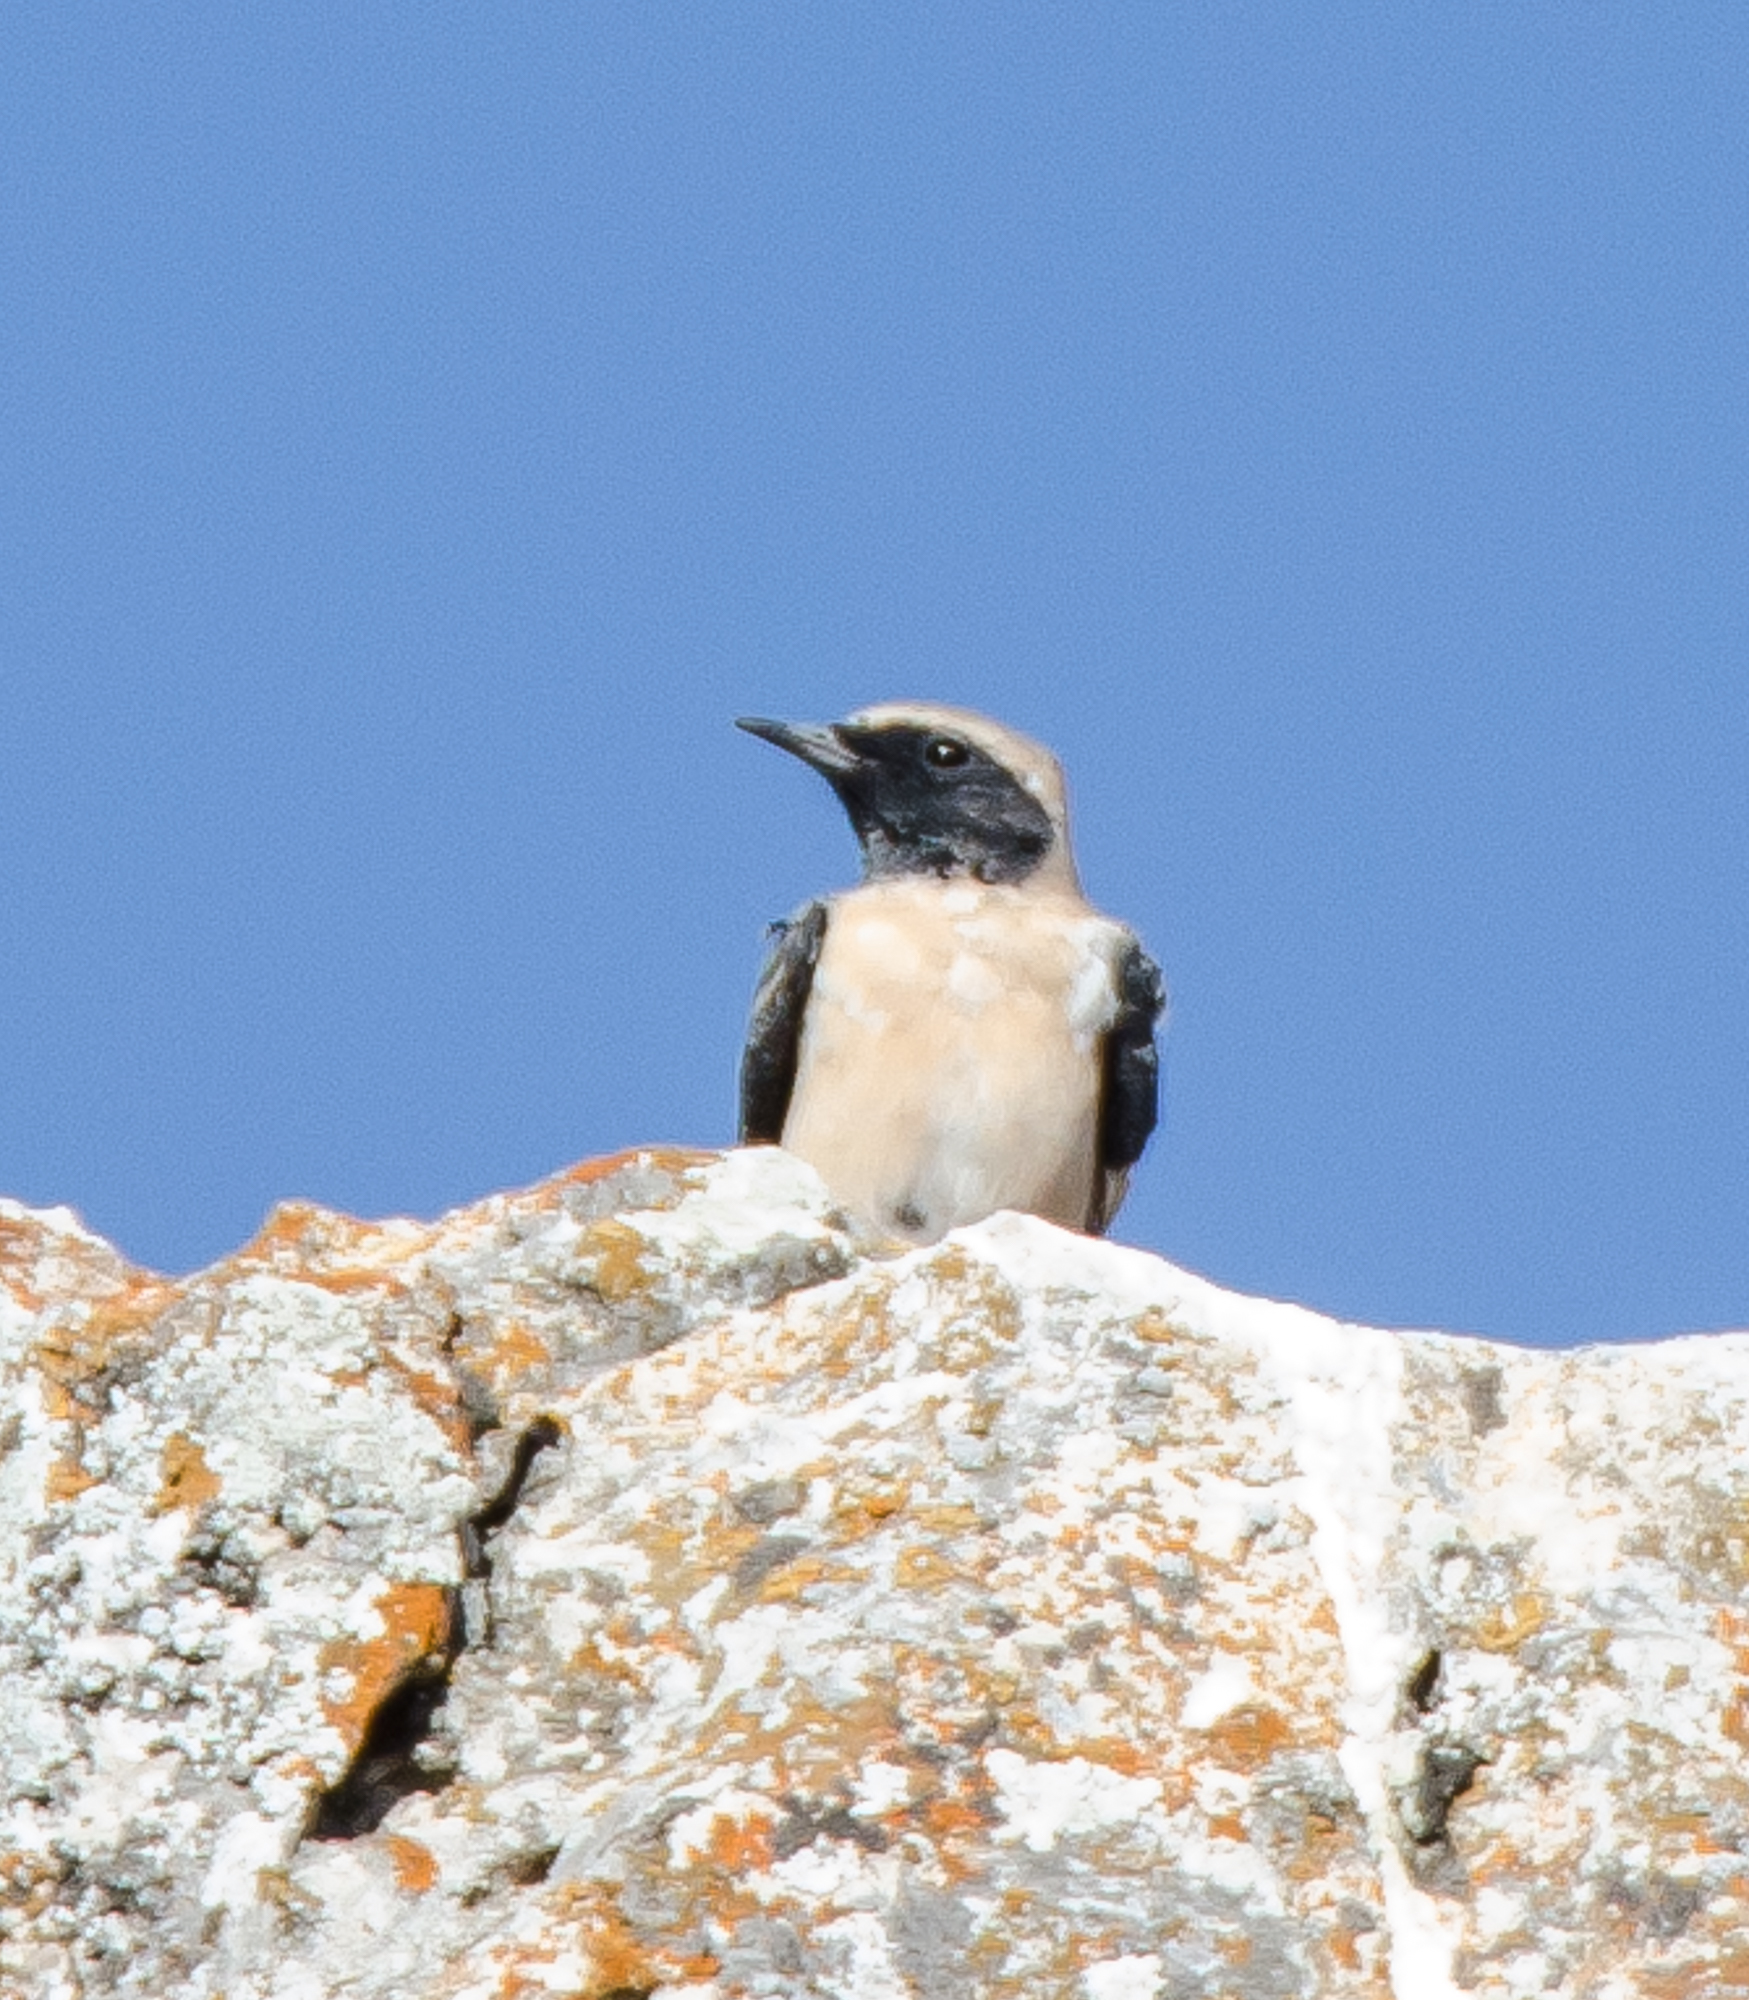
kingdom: Animalia
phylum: Chordata
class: Aves
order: Passeriformes
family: Muscicapidae
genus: Oenanthe
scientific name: Oenanthe hispanica
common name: Black-eared wheatear
